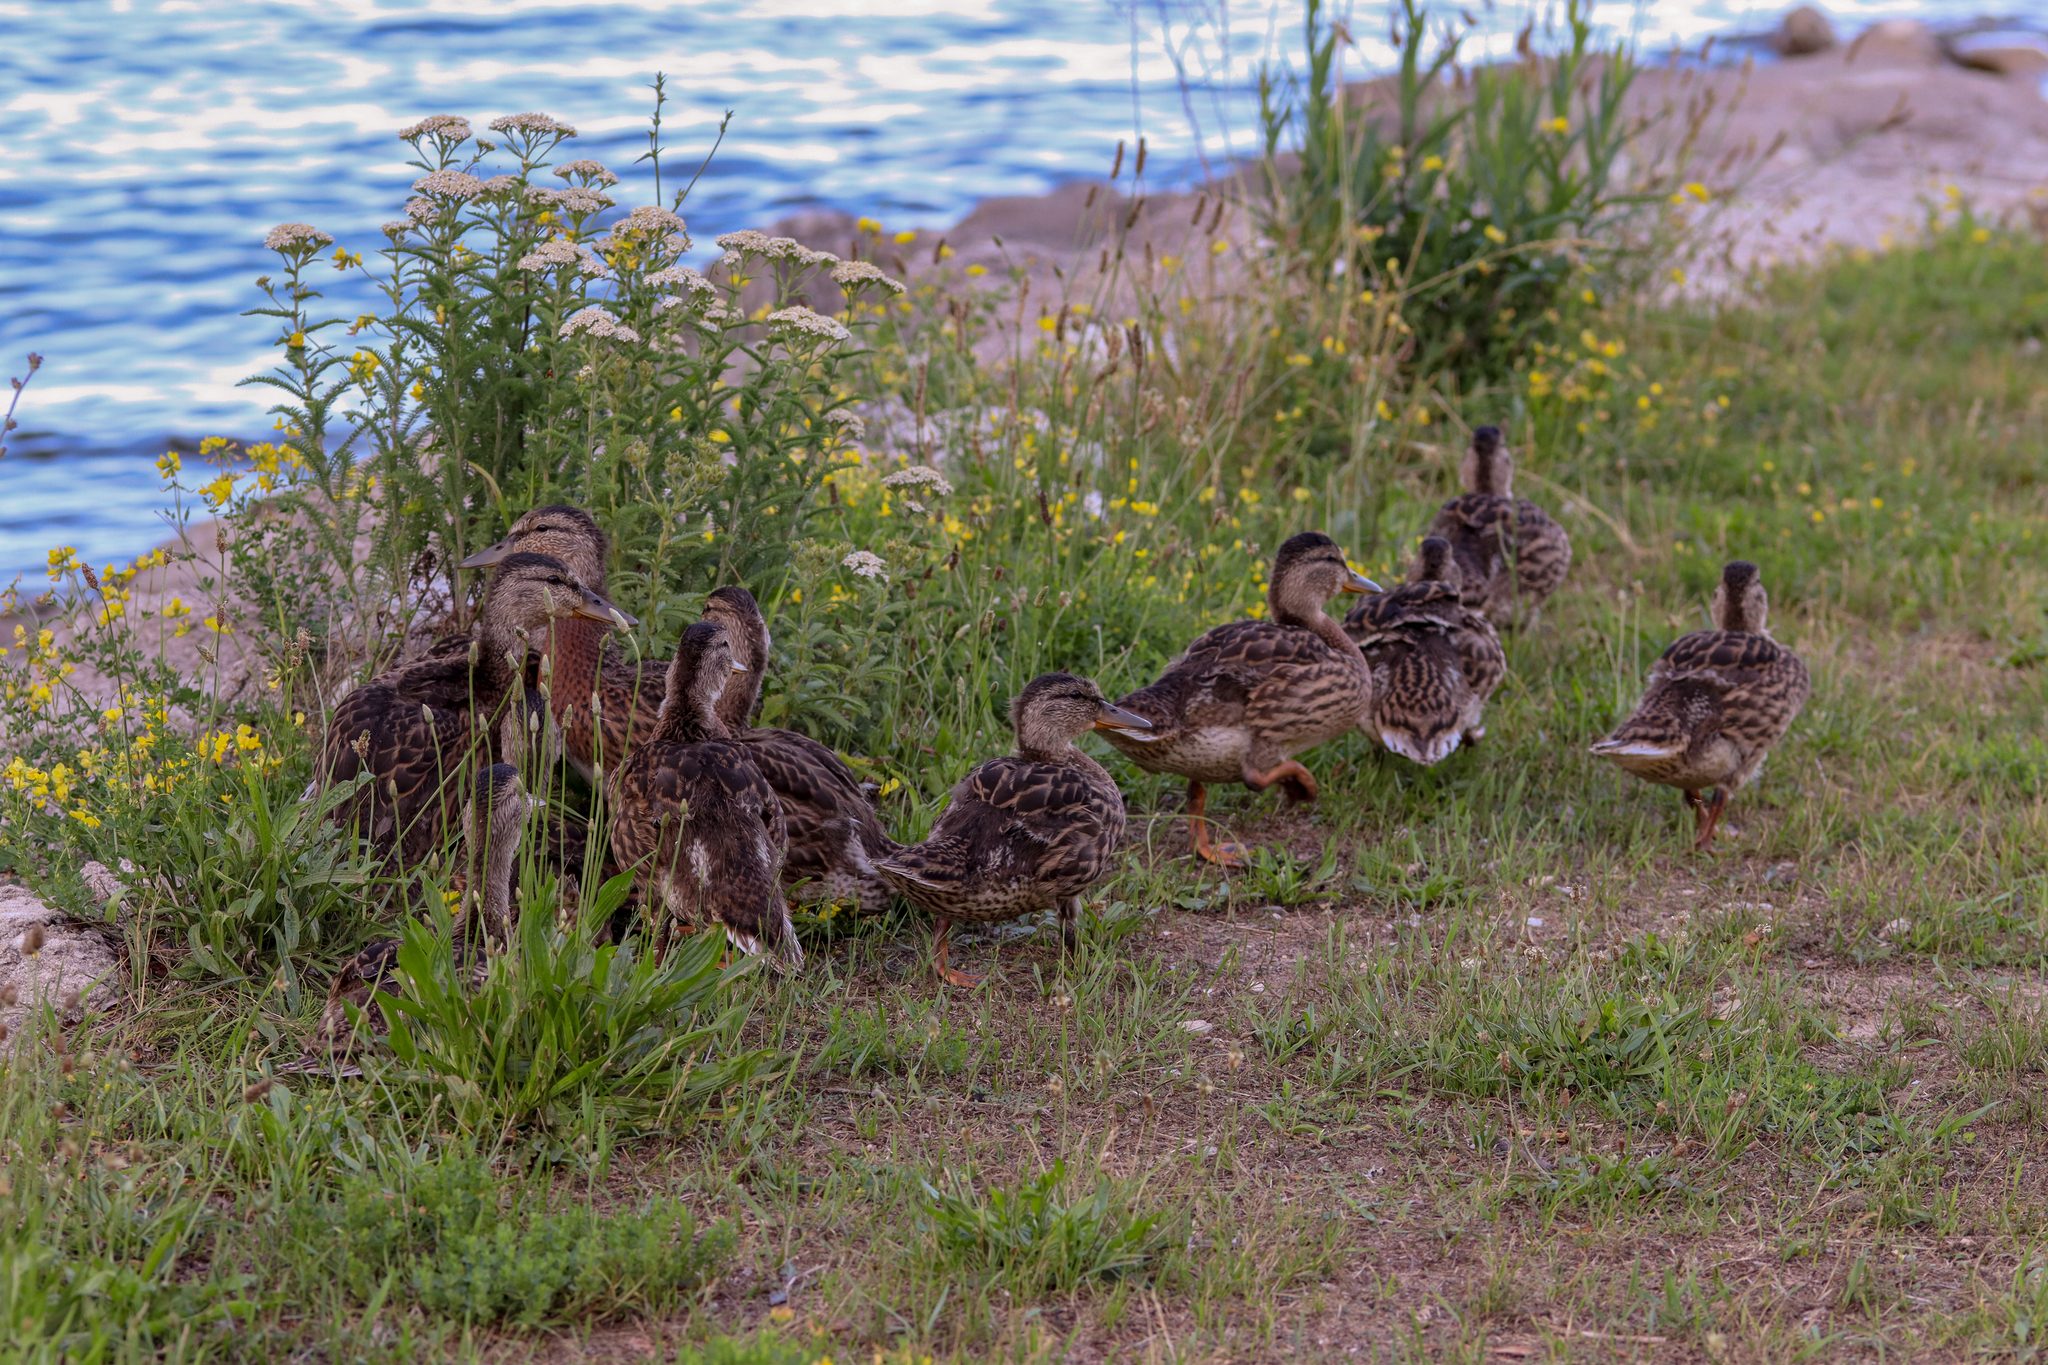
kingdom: Animalia
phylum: Chordata
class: Aves
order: Anseriformes
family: Anatidae
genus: Anas
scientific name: Anas platyrhynchos
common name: Mallard
